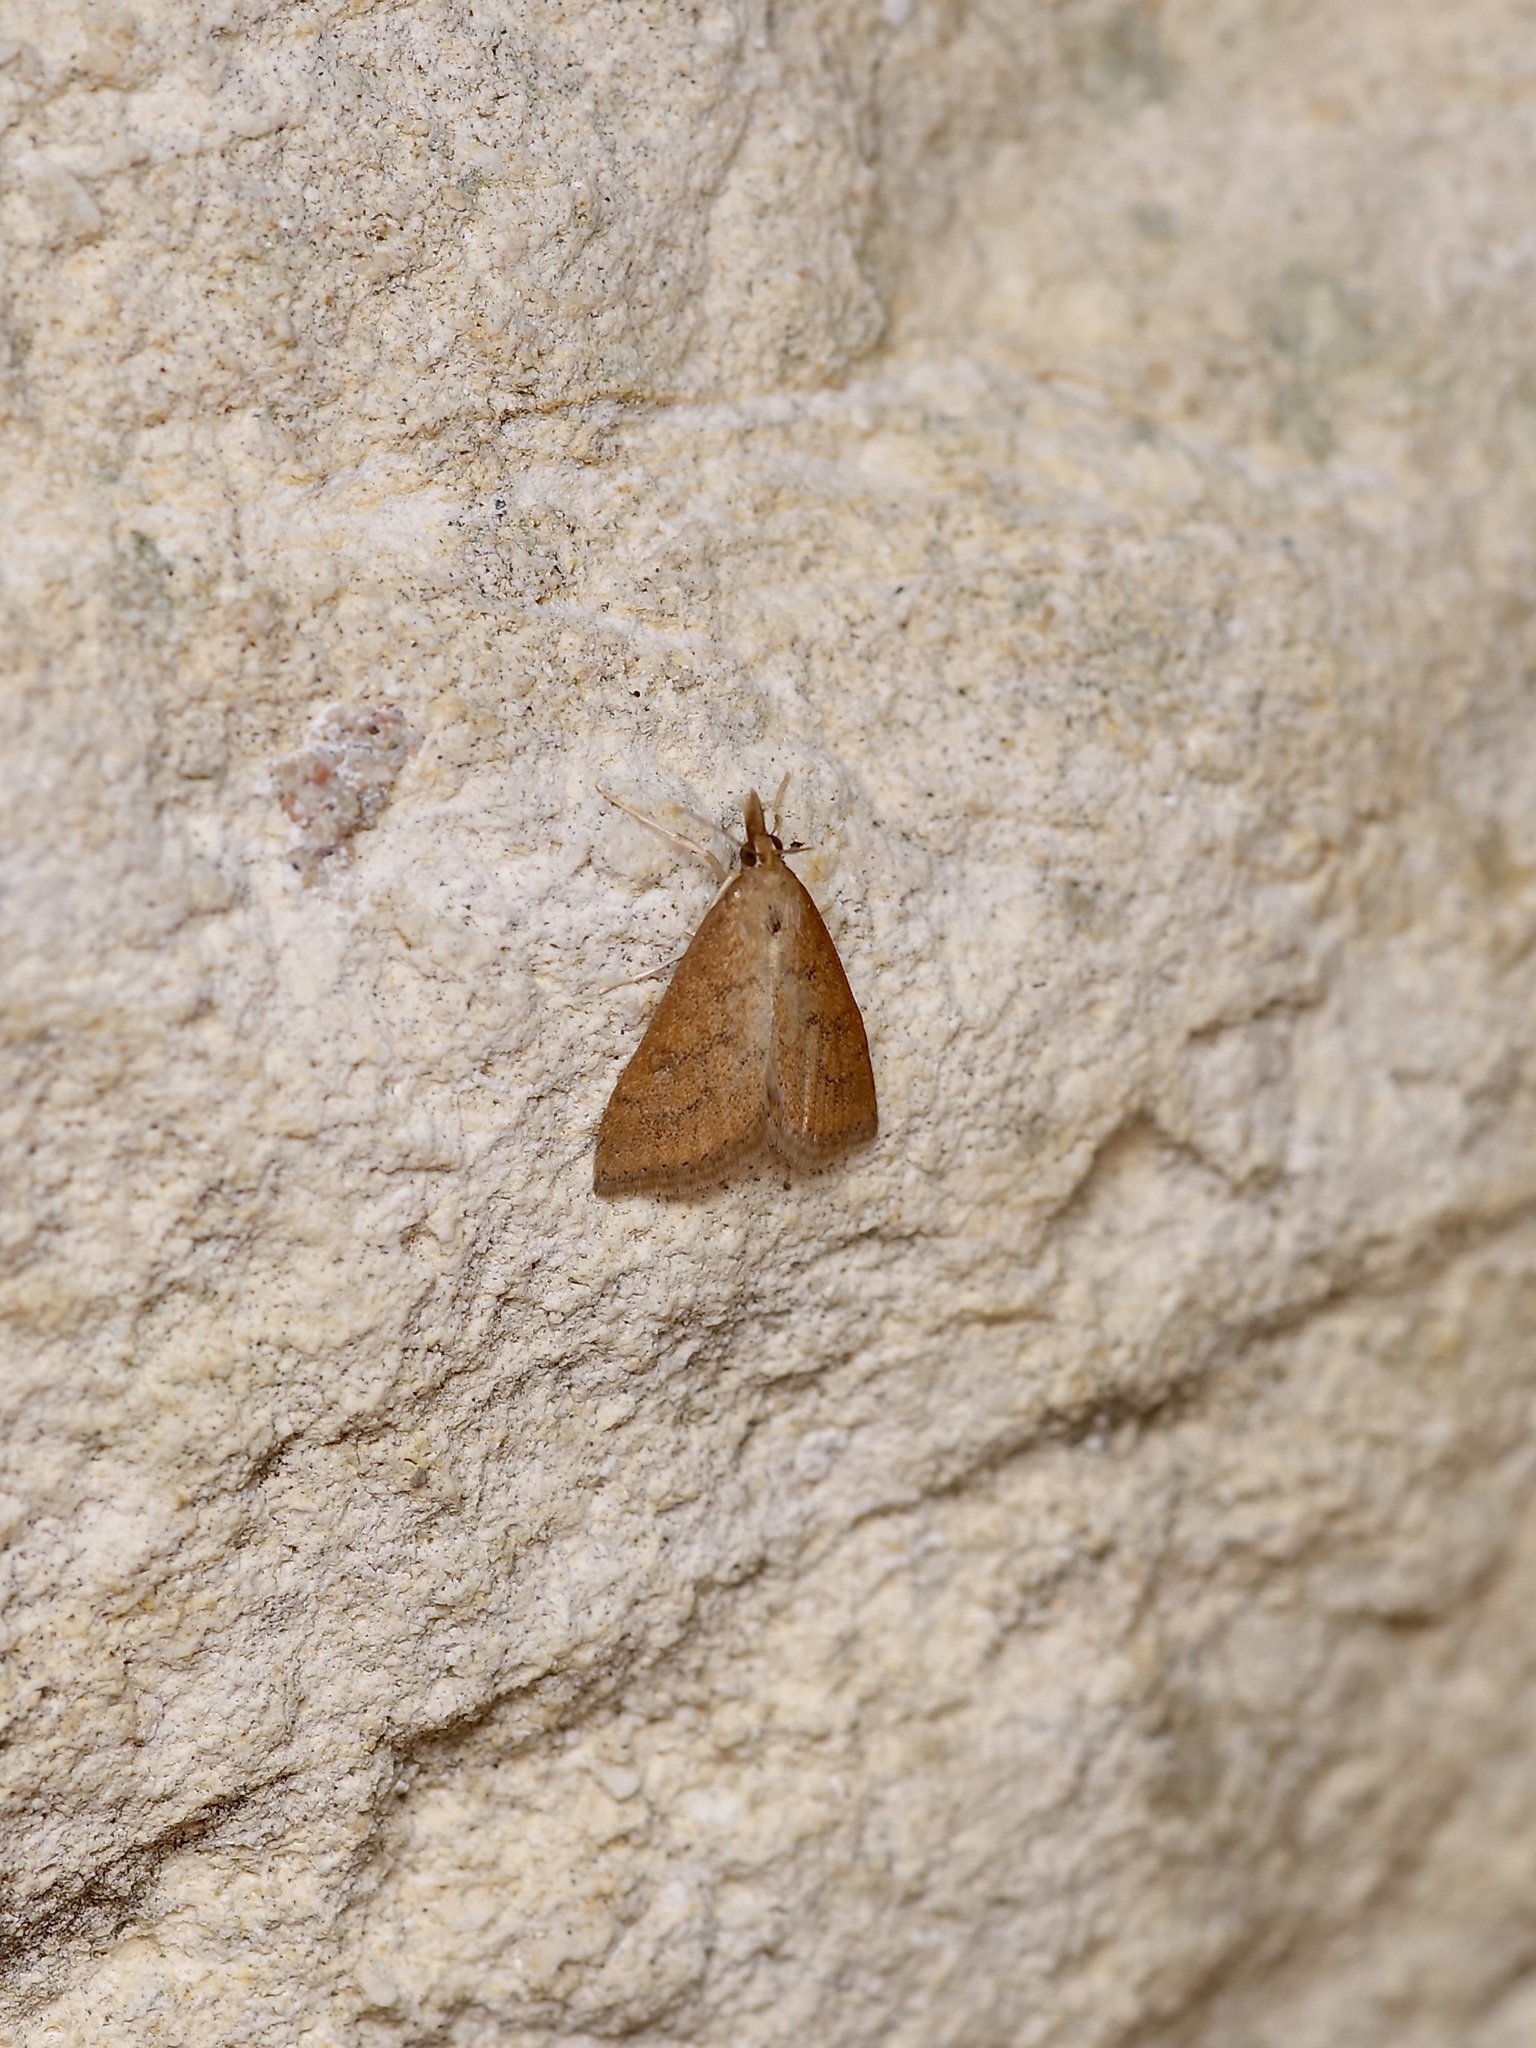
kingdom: Animalia
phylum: Arthropoda
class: Insecta
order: Lepidoptera
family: Crambidae
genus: Udea
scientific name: Udea rubigalis
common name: Celery leaftier moth
